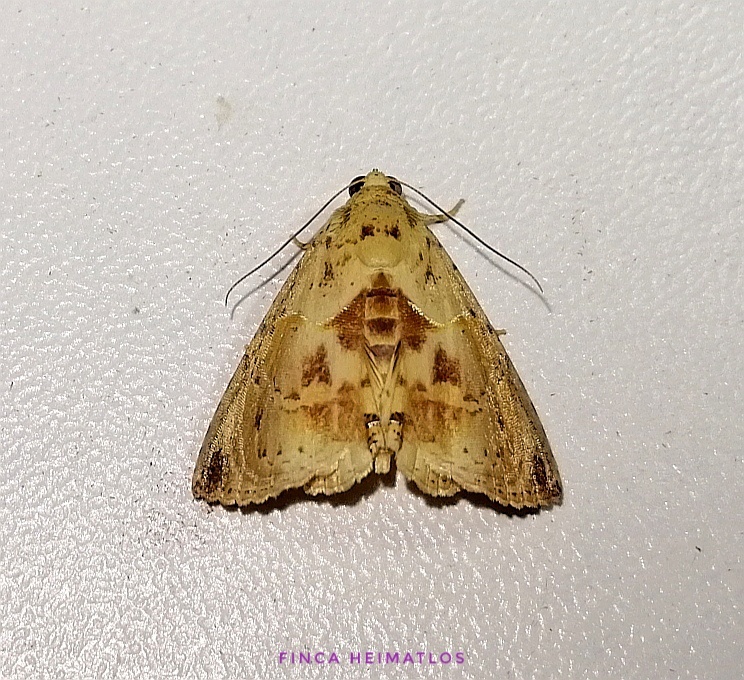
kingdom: Animalia
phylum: Arthropoda
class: Insecta
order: Lepidoptera
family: Erebidae
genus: Calydia
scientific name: Calydia osseata
